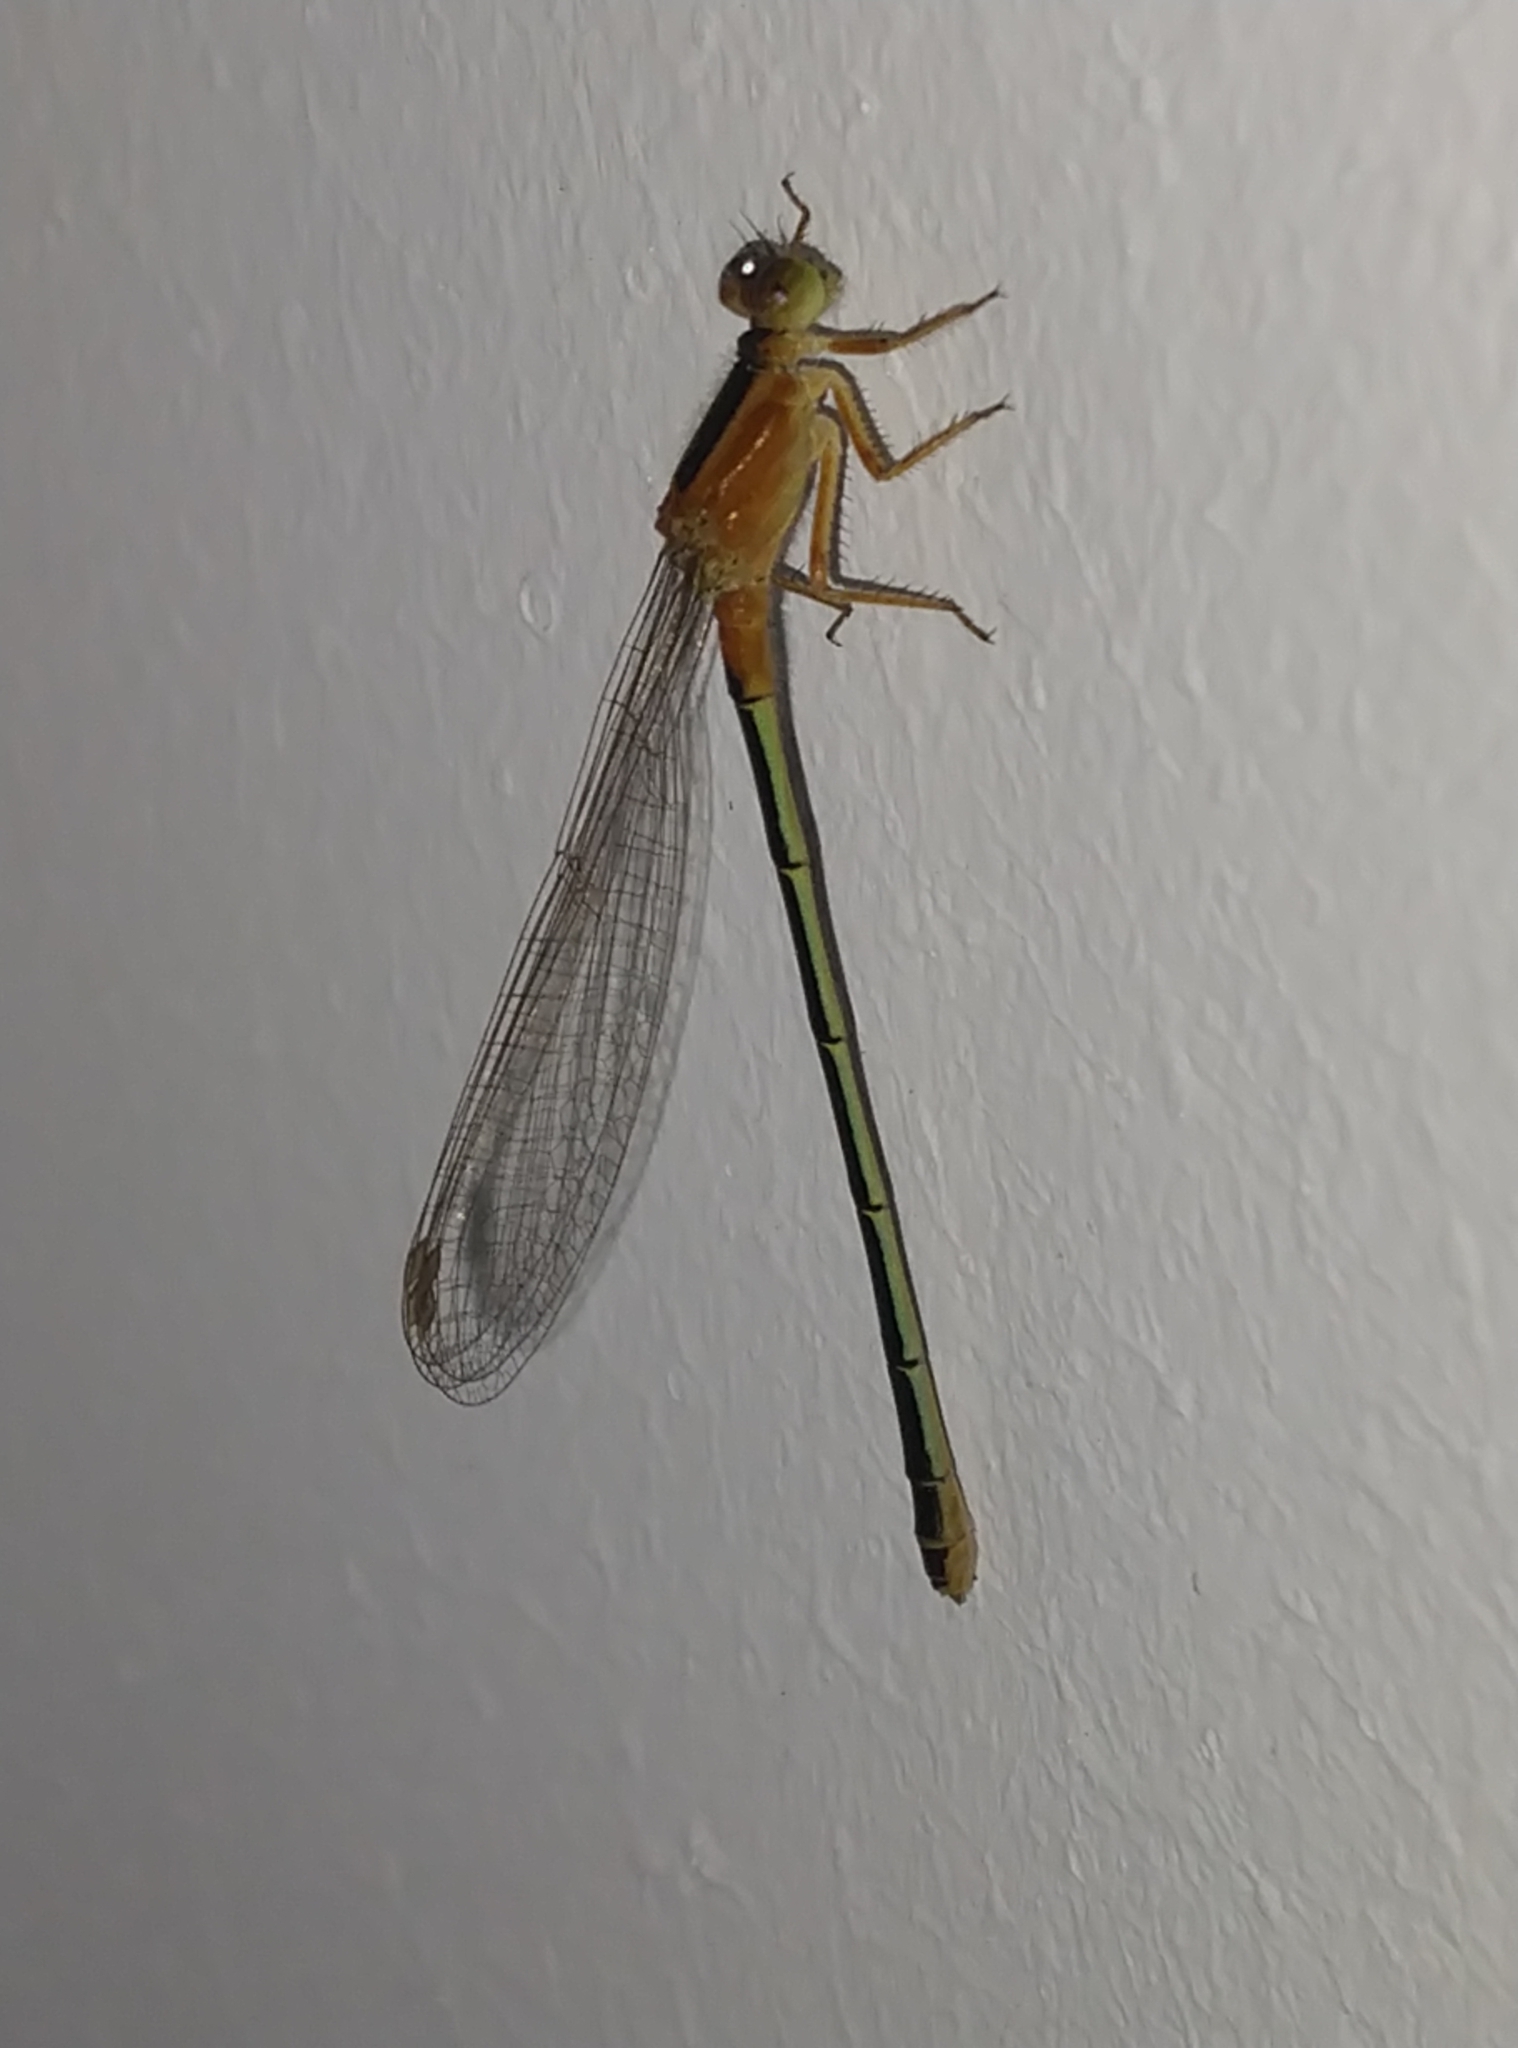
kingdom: Animalia
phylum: Arthropoda
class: Insecta
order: Odonata
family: Coenagrionidae
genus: Ischnura
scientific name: Ischnura senegalensis
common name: Tropical bluetail
